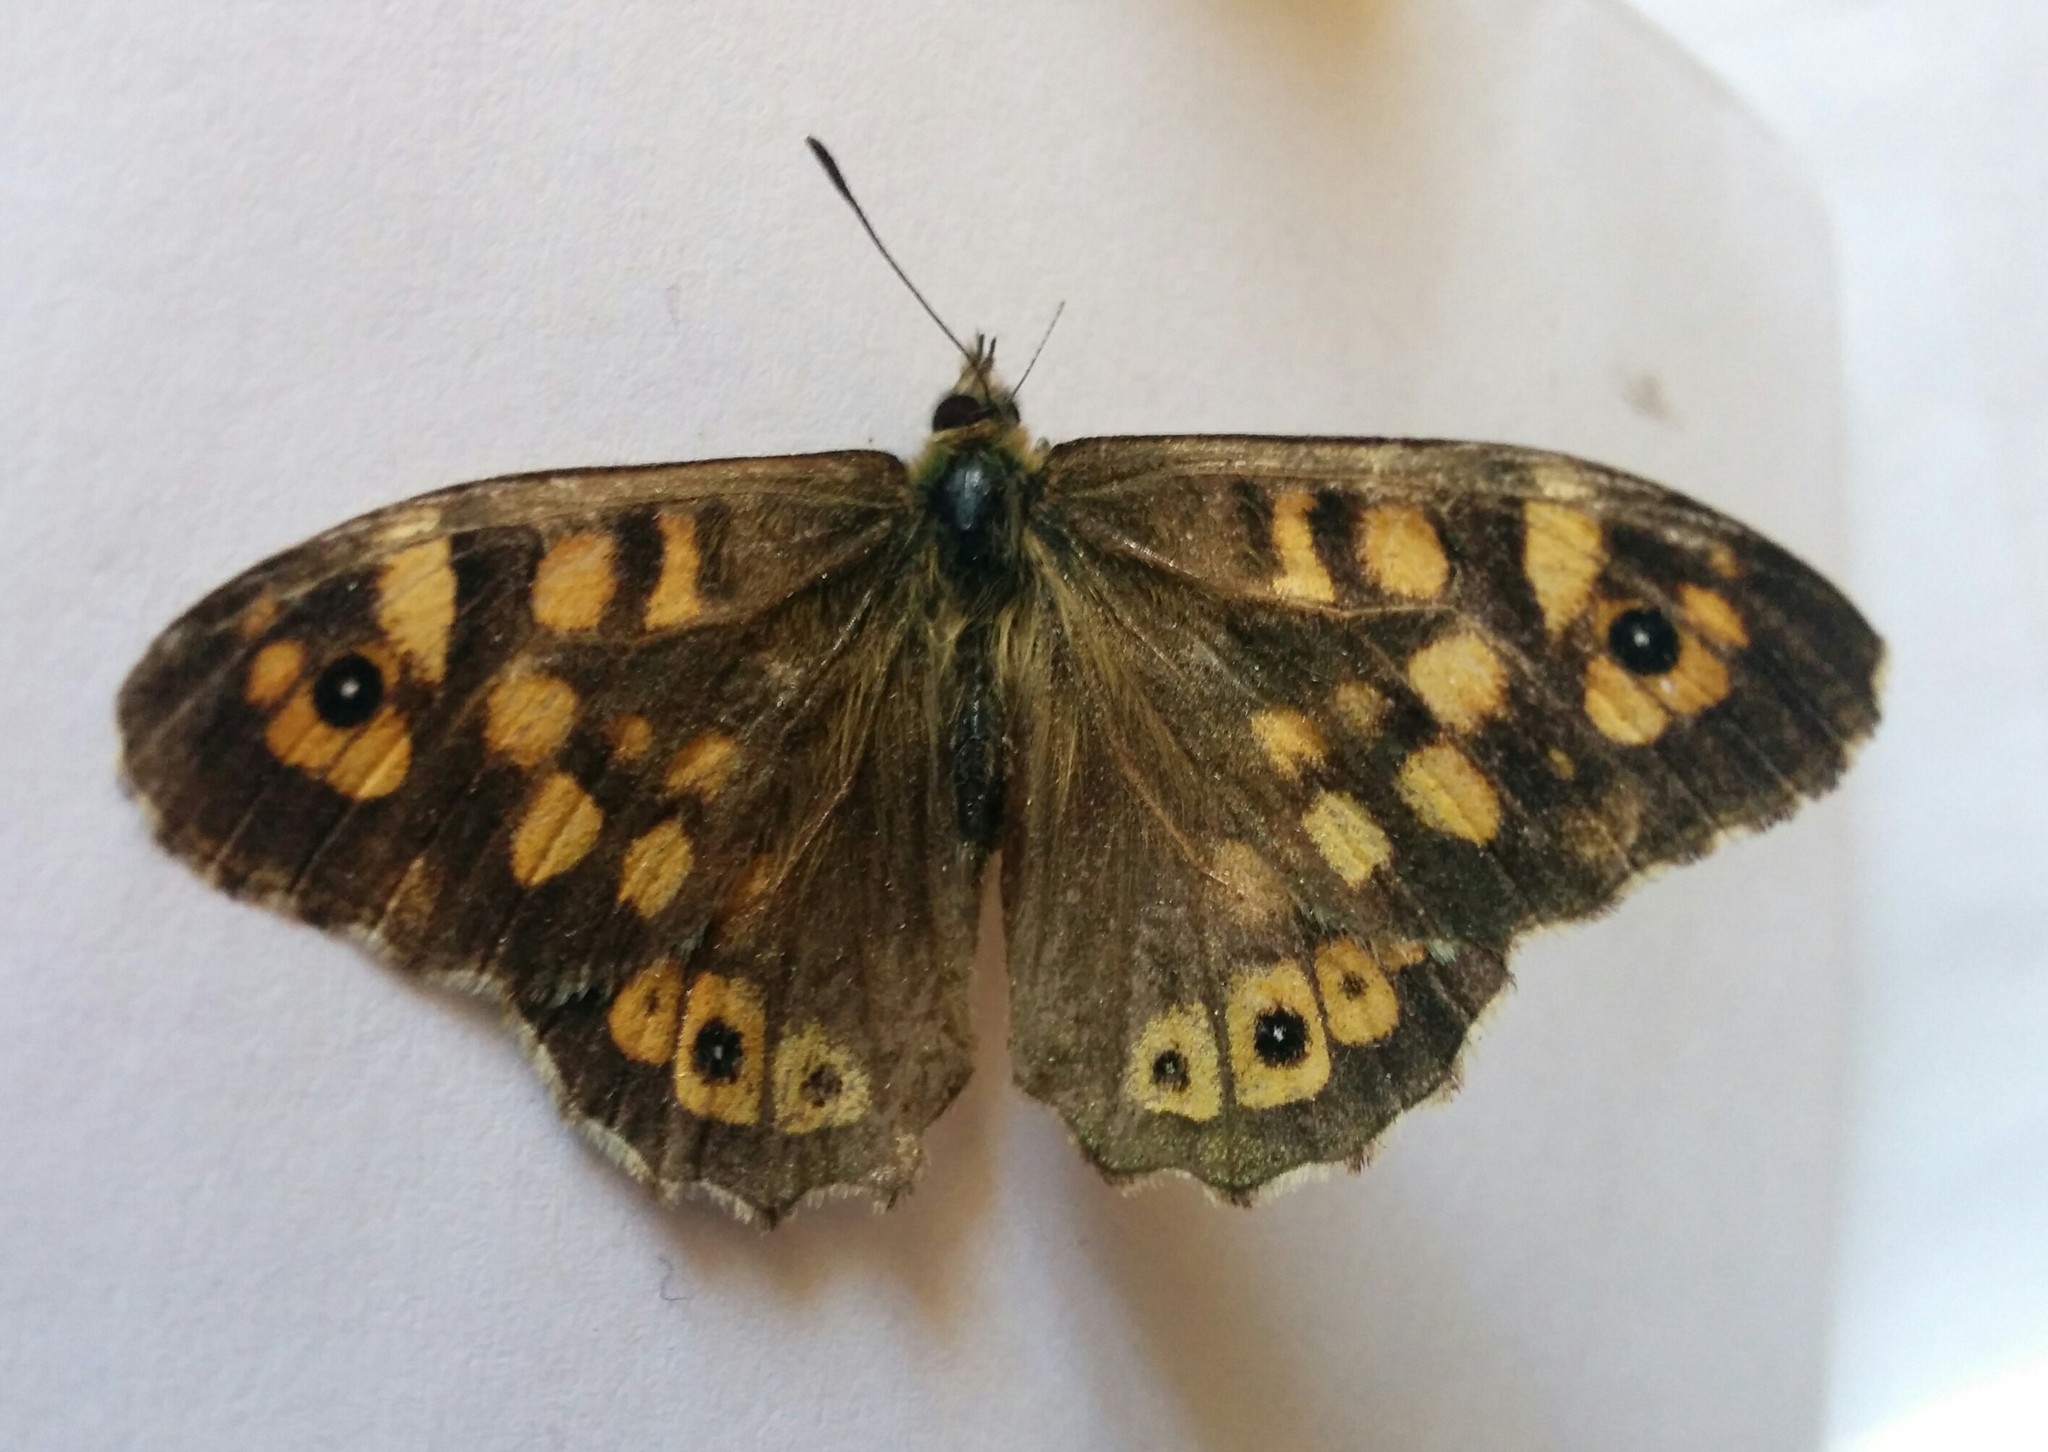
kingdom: Animalia
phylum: Arthropoda
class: Insecta
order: Lepidoptera
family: Nymphalidae
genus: Pararge
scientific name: Pararge aegeria
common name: Speckled wood
